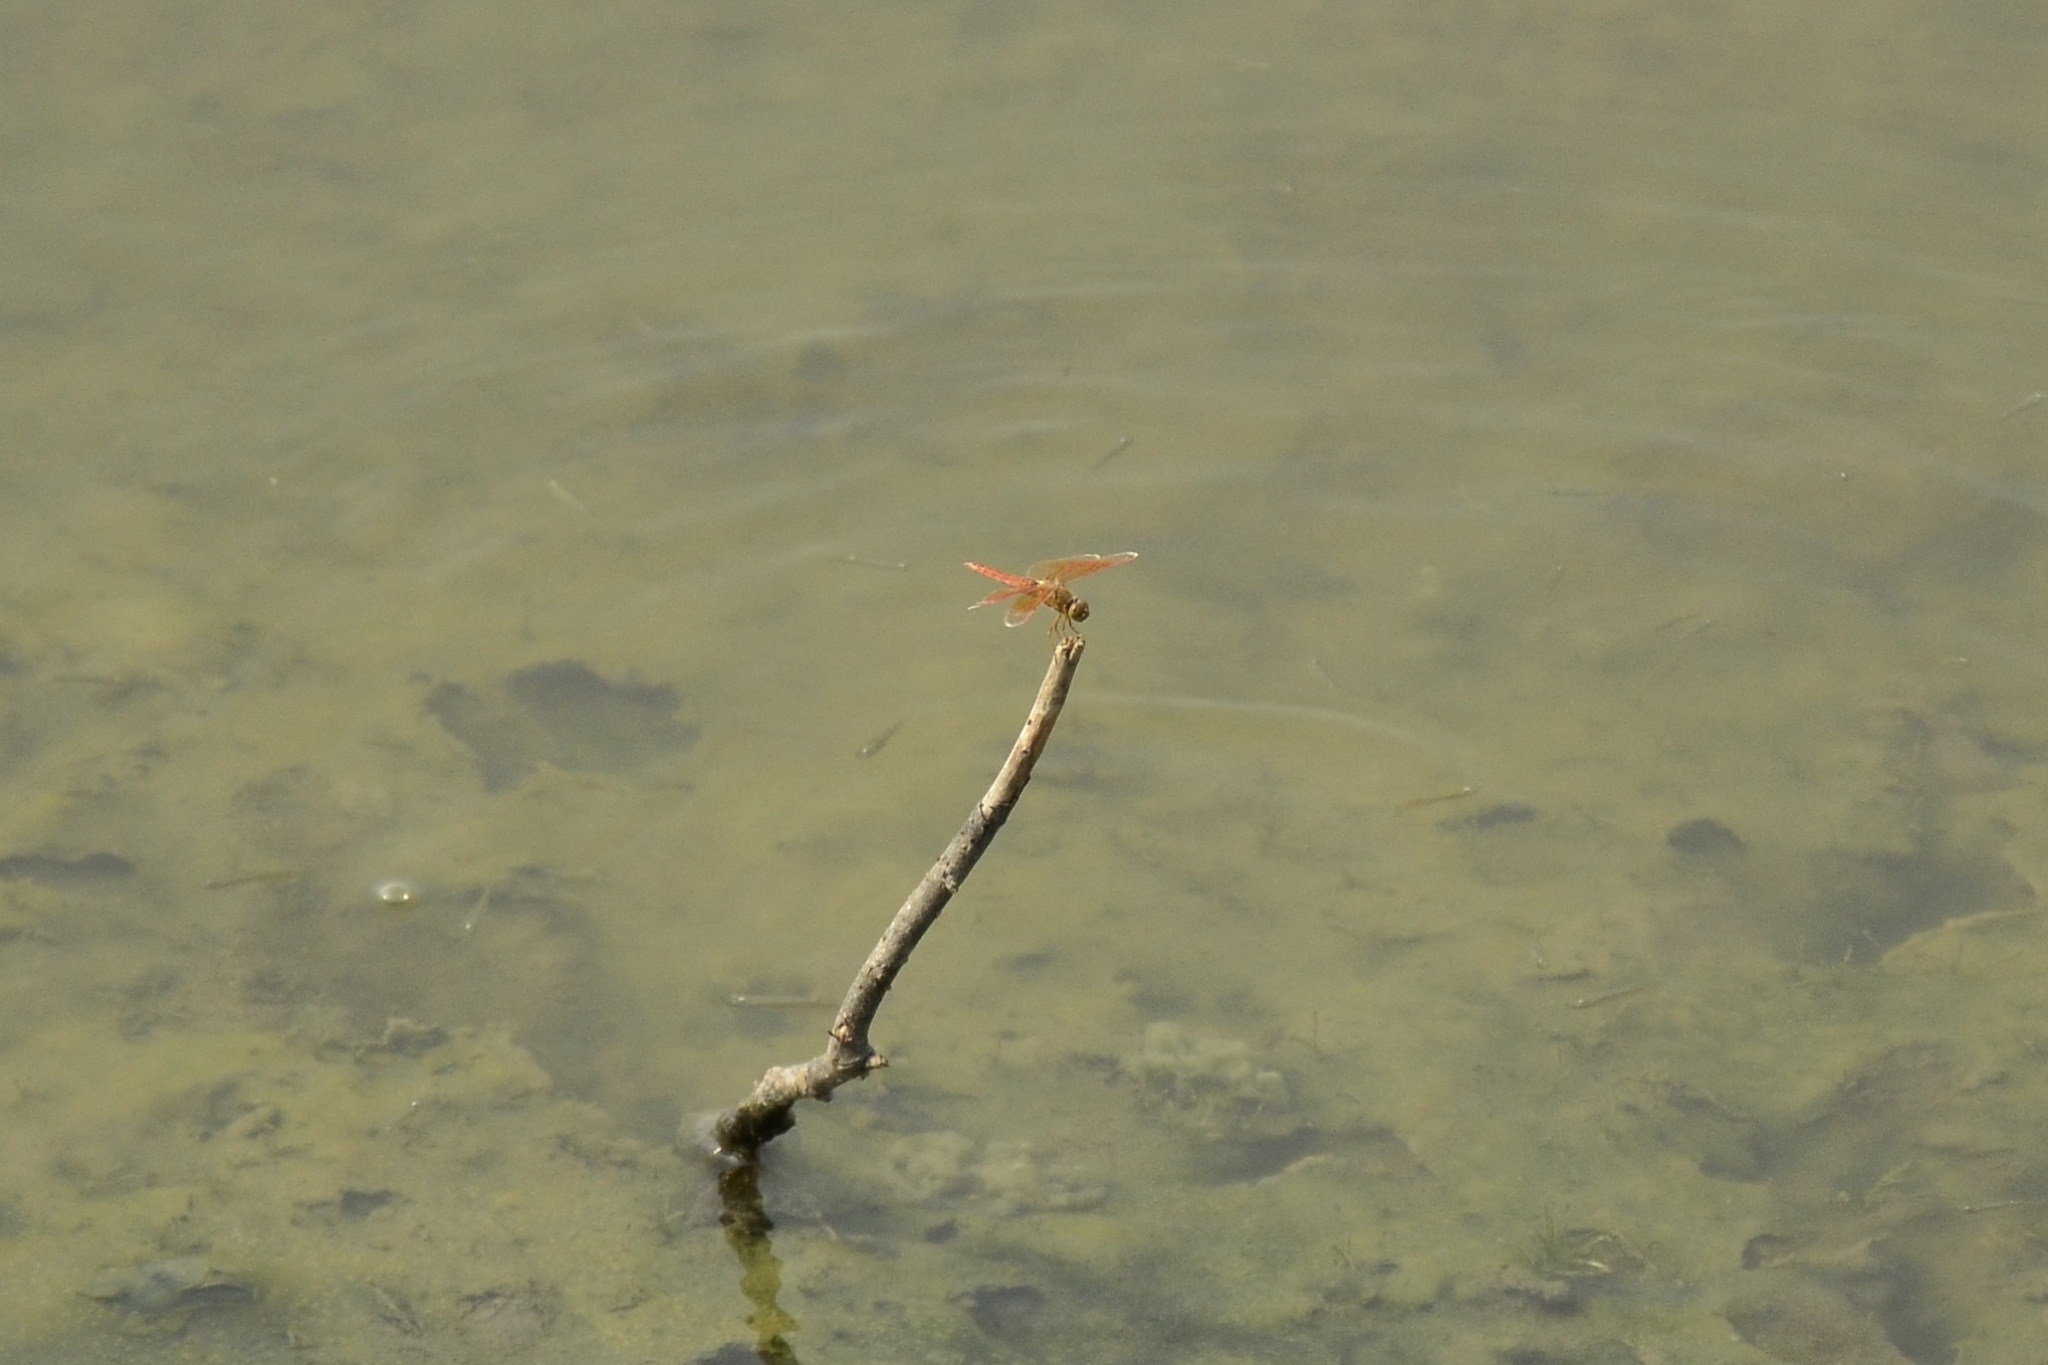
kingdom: Animalia
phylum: Arthropoda
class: Insecta
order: Odonata
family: Libellulidae
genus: Brachythemis
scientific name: Brachythemis contaminata
